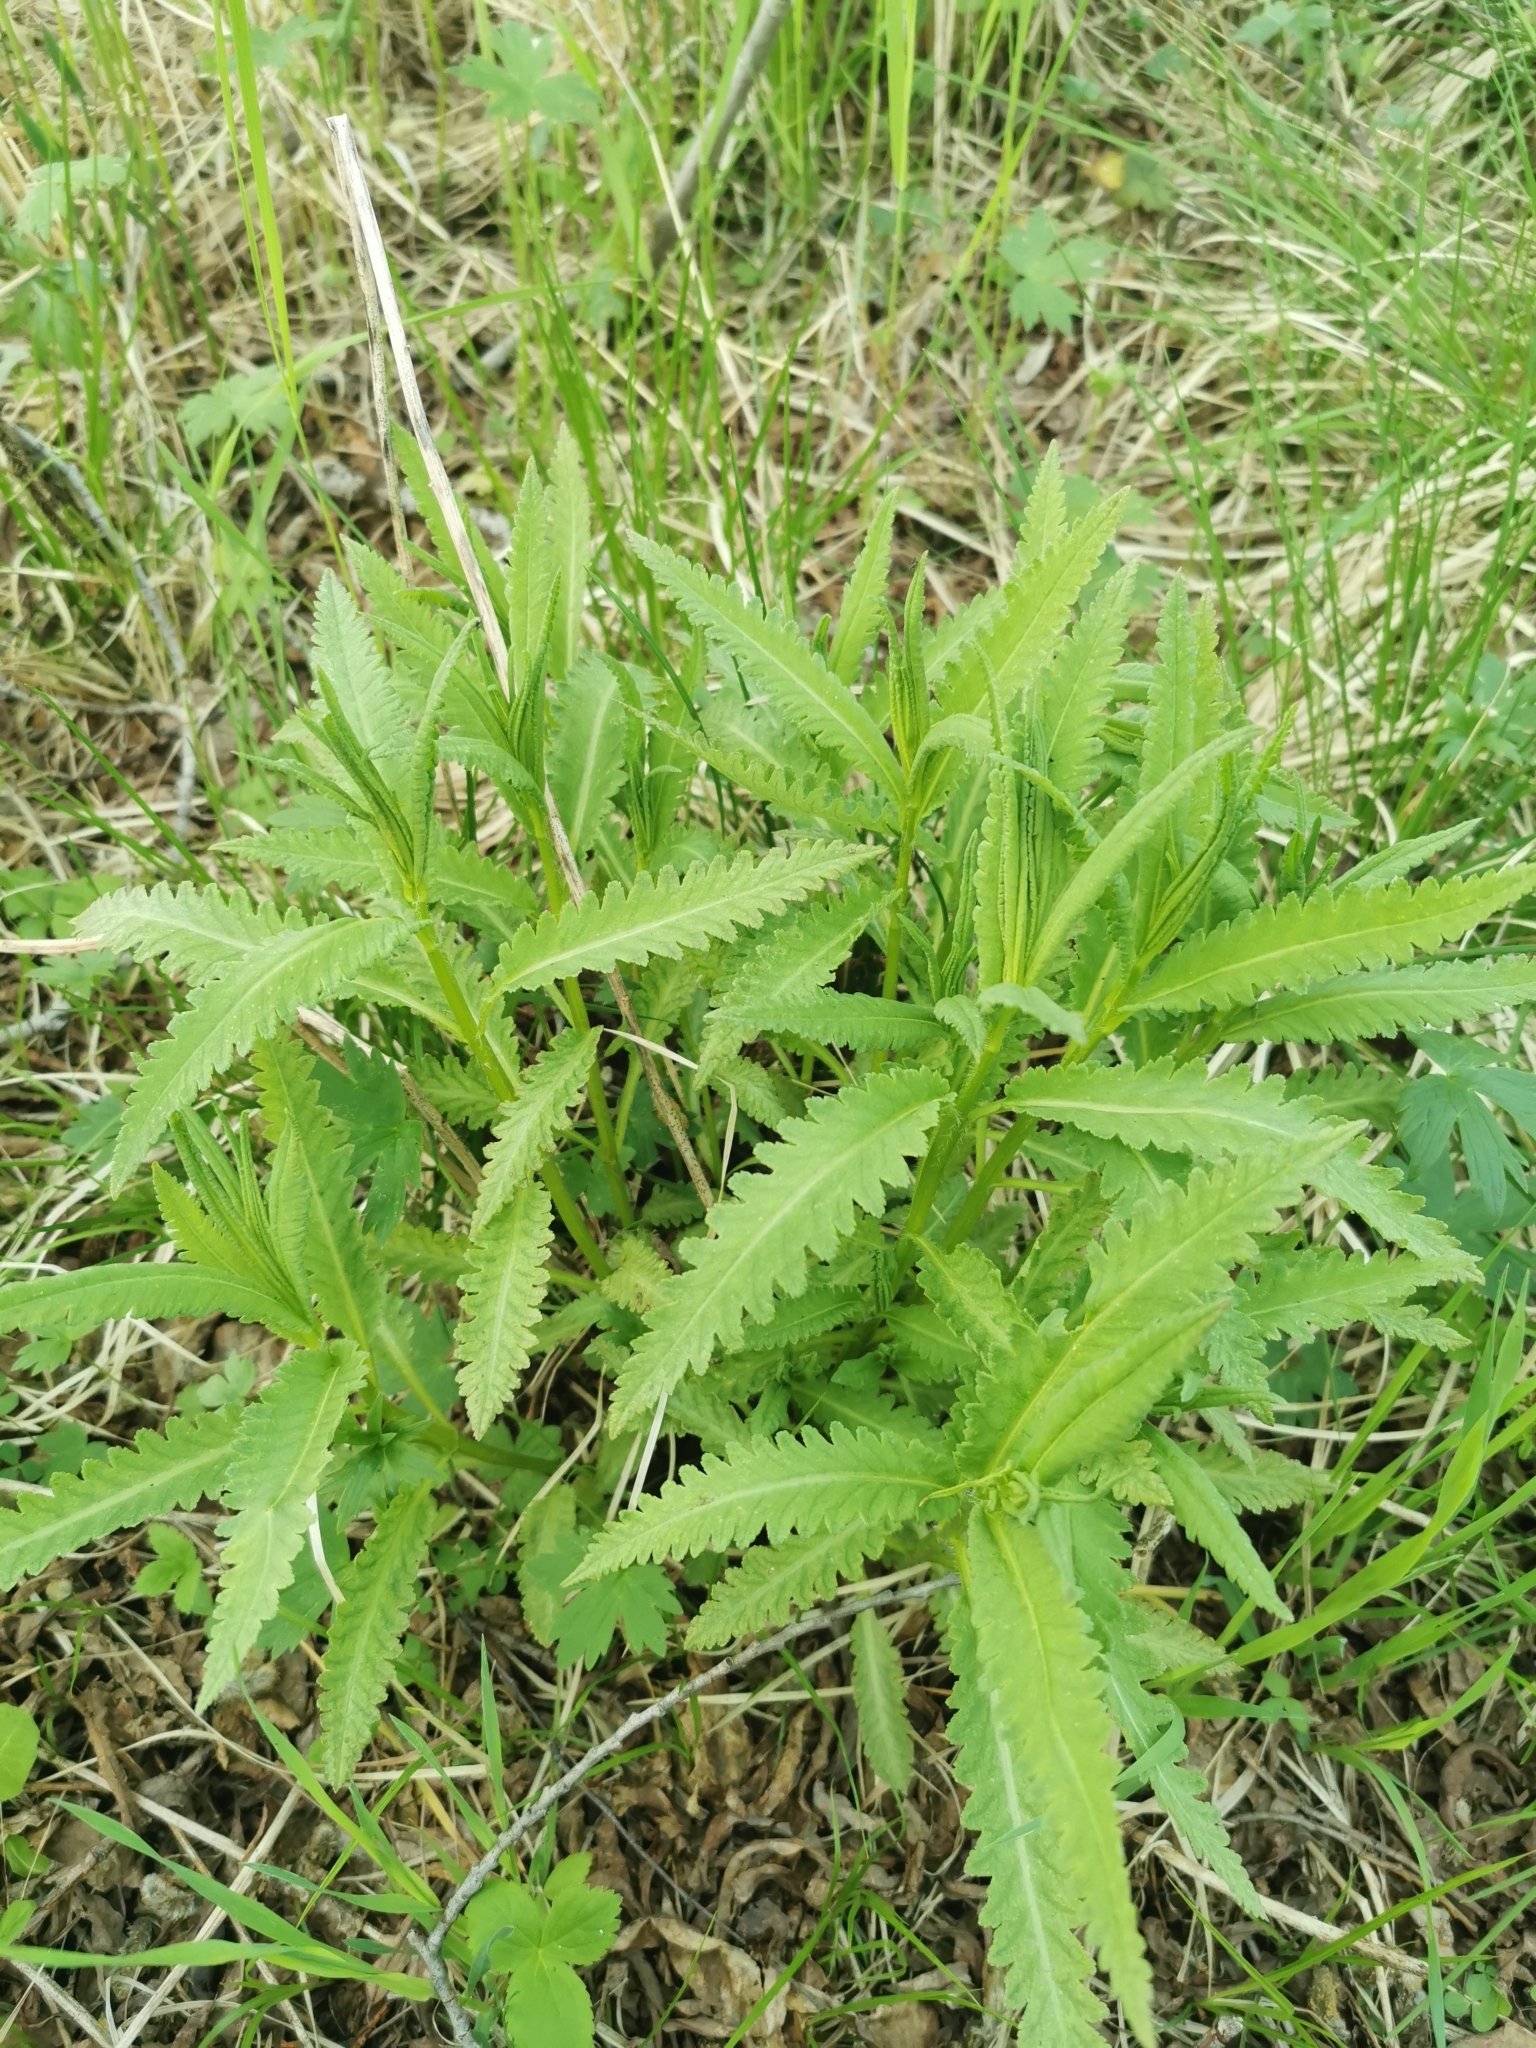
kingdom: Plantae
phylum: Tracheophyta
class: Magnoliopsida
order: Lamiales
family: Orobanchaceae
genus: Pedicularis
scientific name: Pedicularis resupinata
